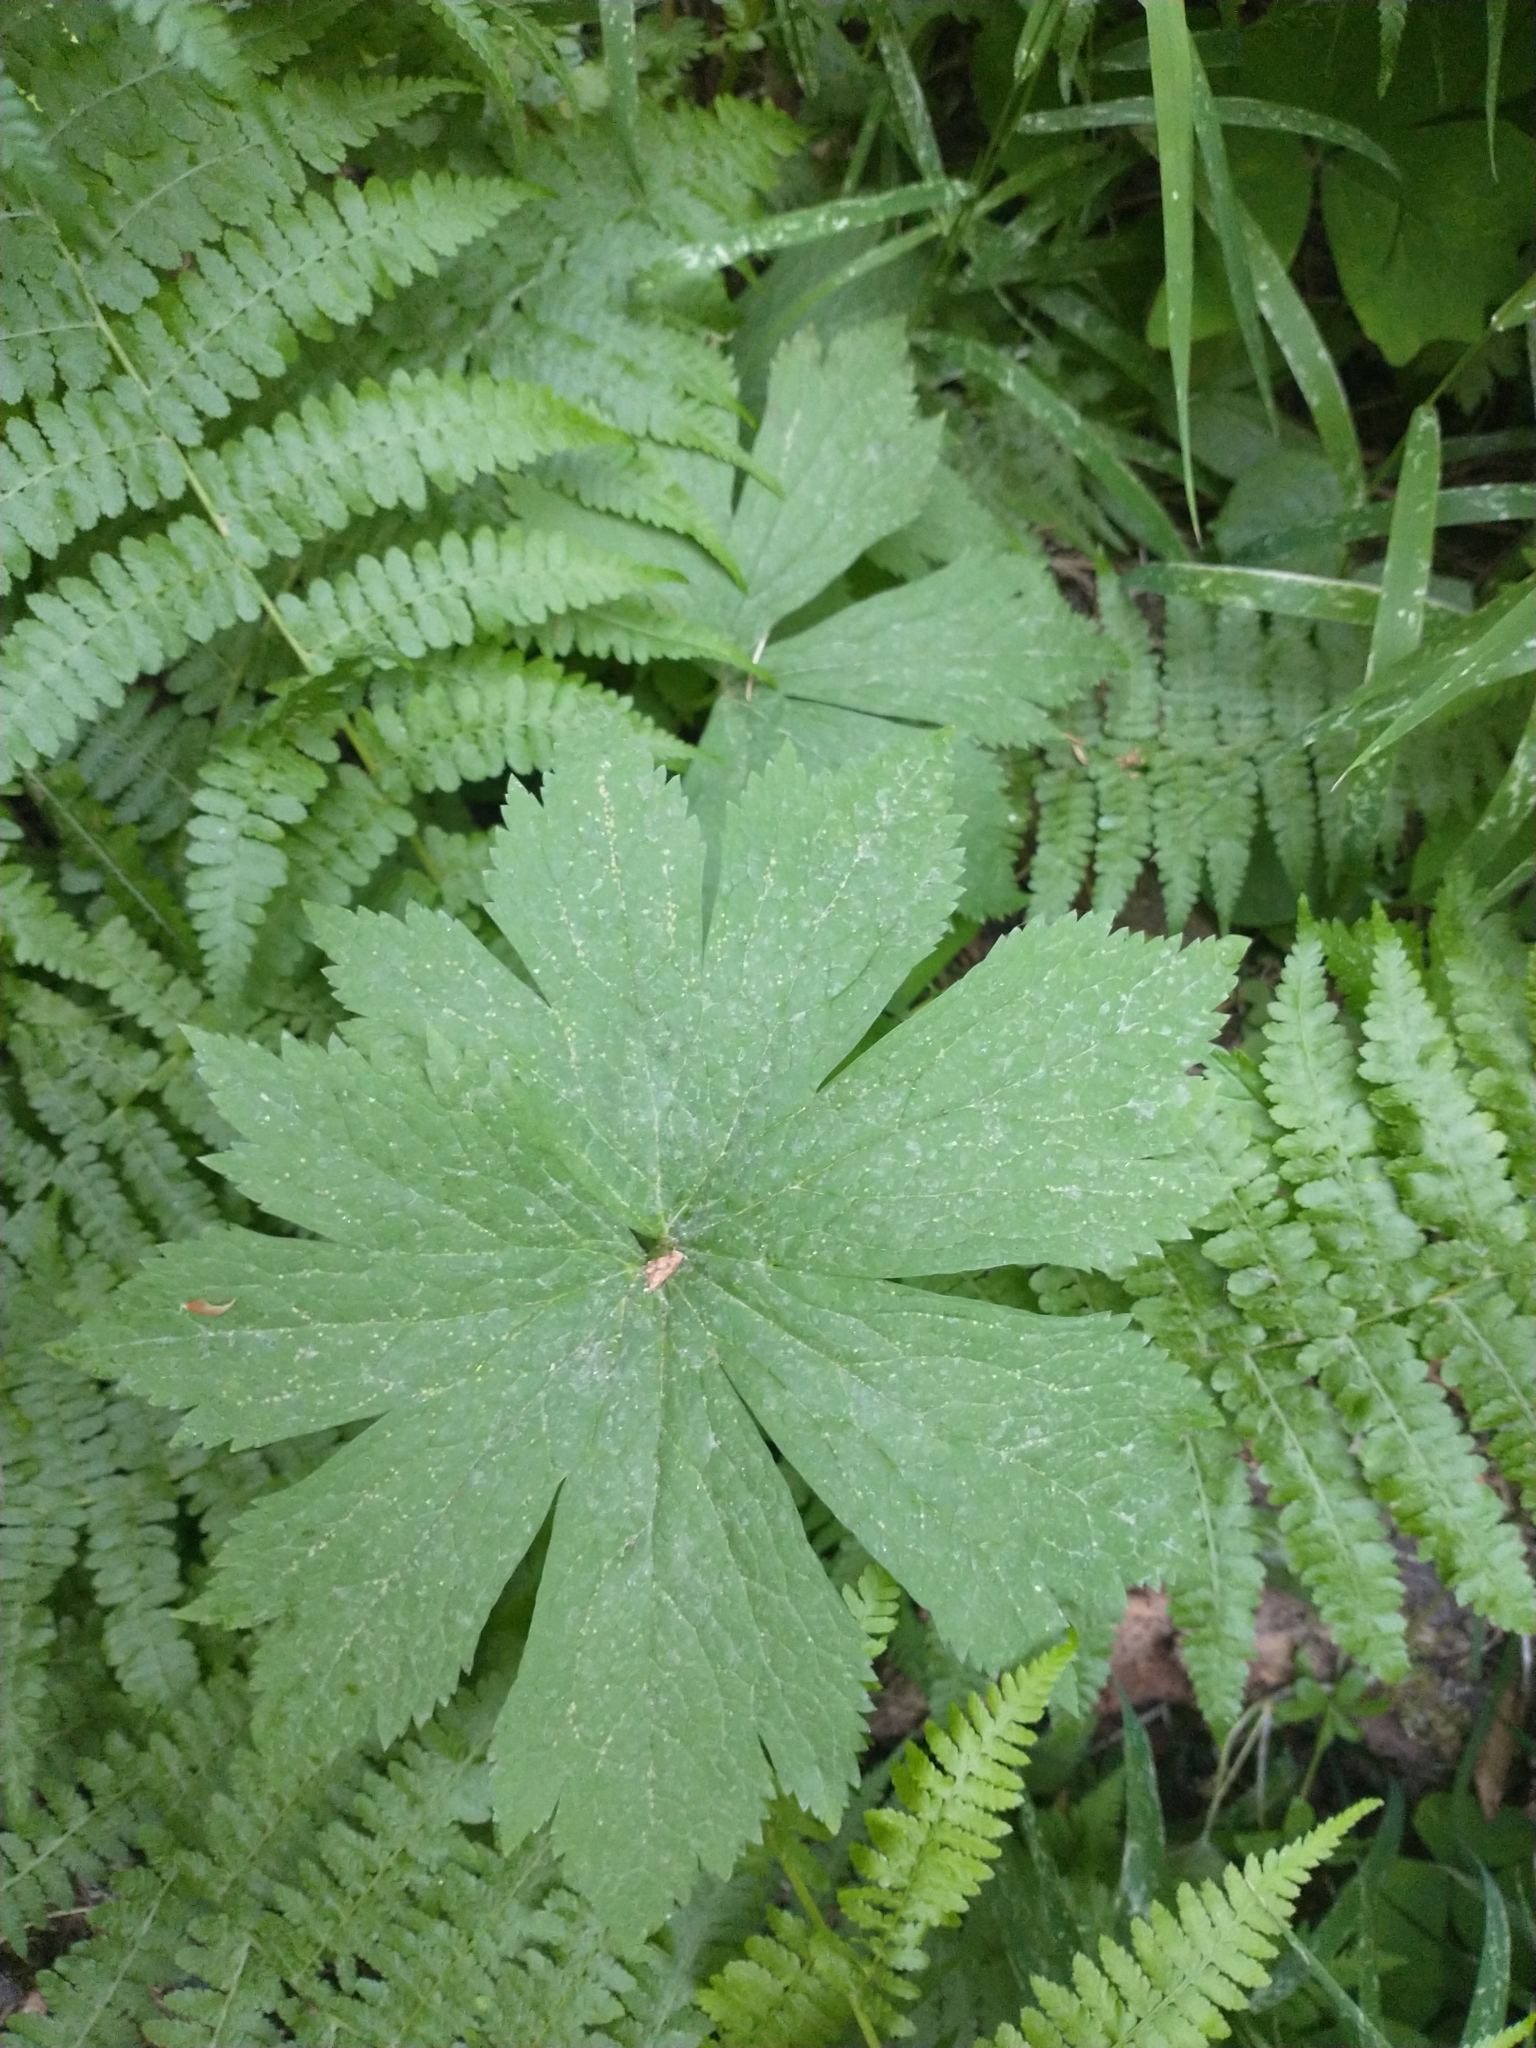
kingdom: Plantae
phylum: Tracheophyta
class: Magnoliopsida
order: Ranunculales
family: Ranunculaceae
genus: Trautvetteria
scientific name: Trautvetteria carolinensis
